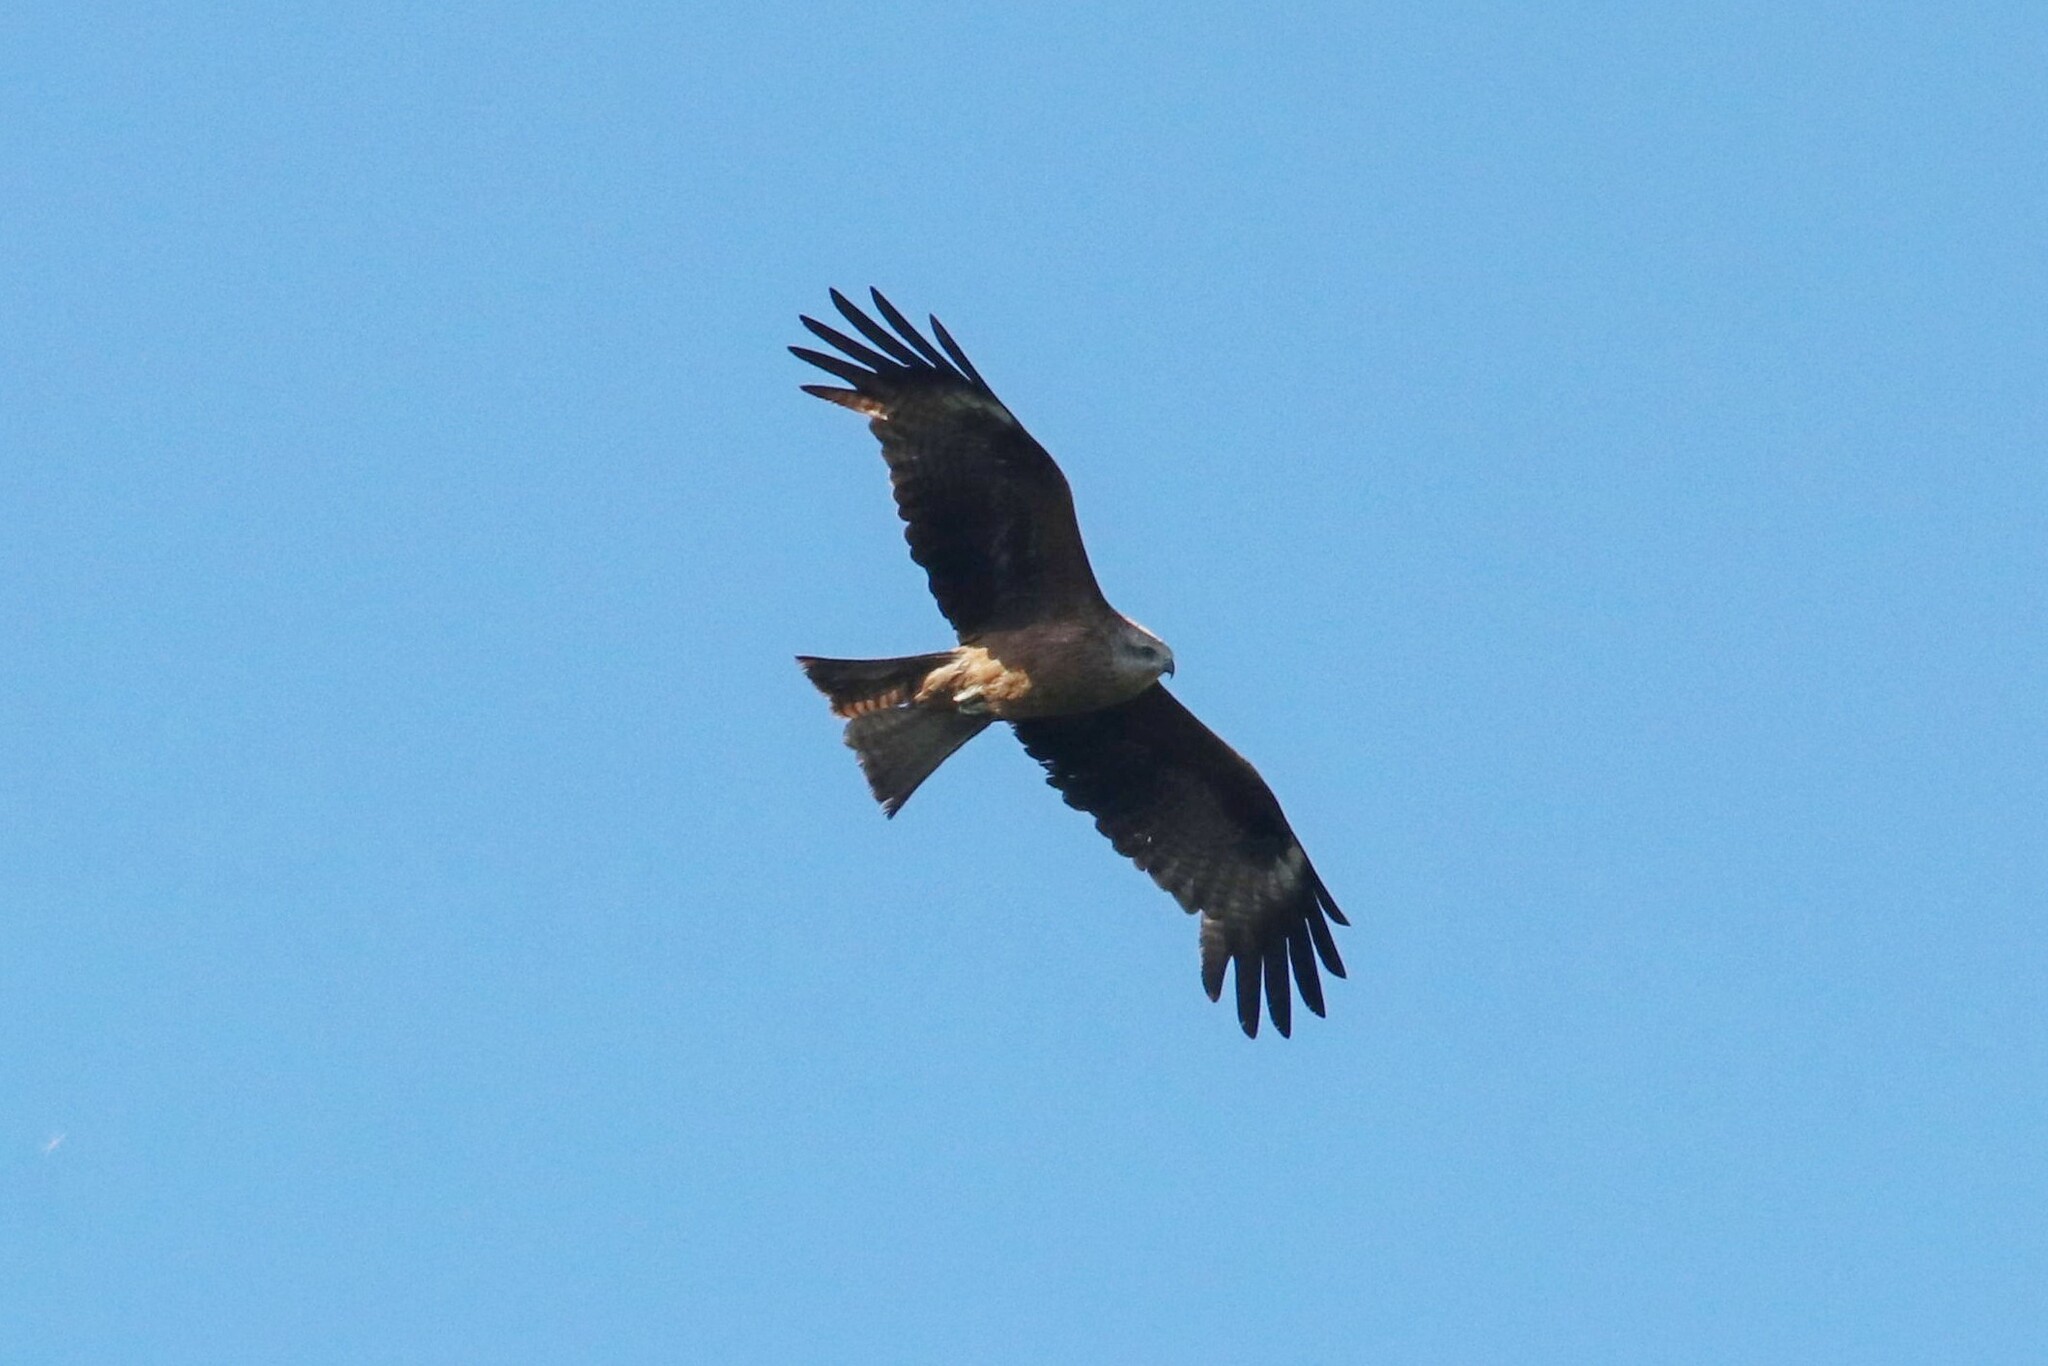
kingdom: Animalia
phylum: Chordata
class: Aves
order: Accipitriformes
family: Accipitridae
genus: Milvus
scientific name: Milvus migrans
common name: Black kite
